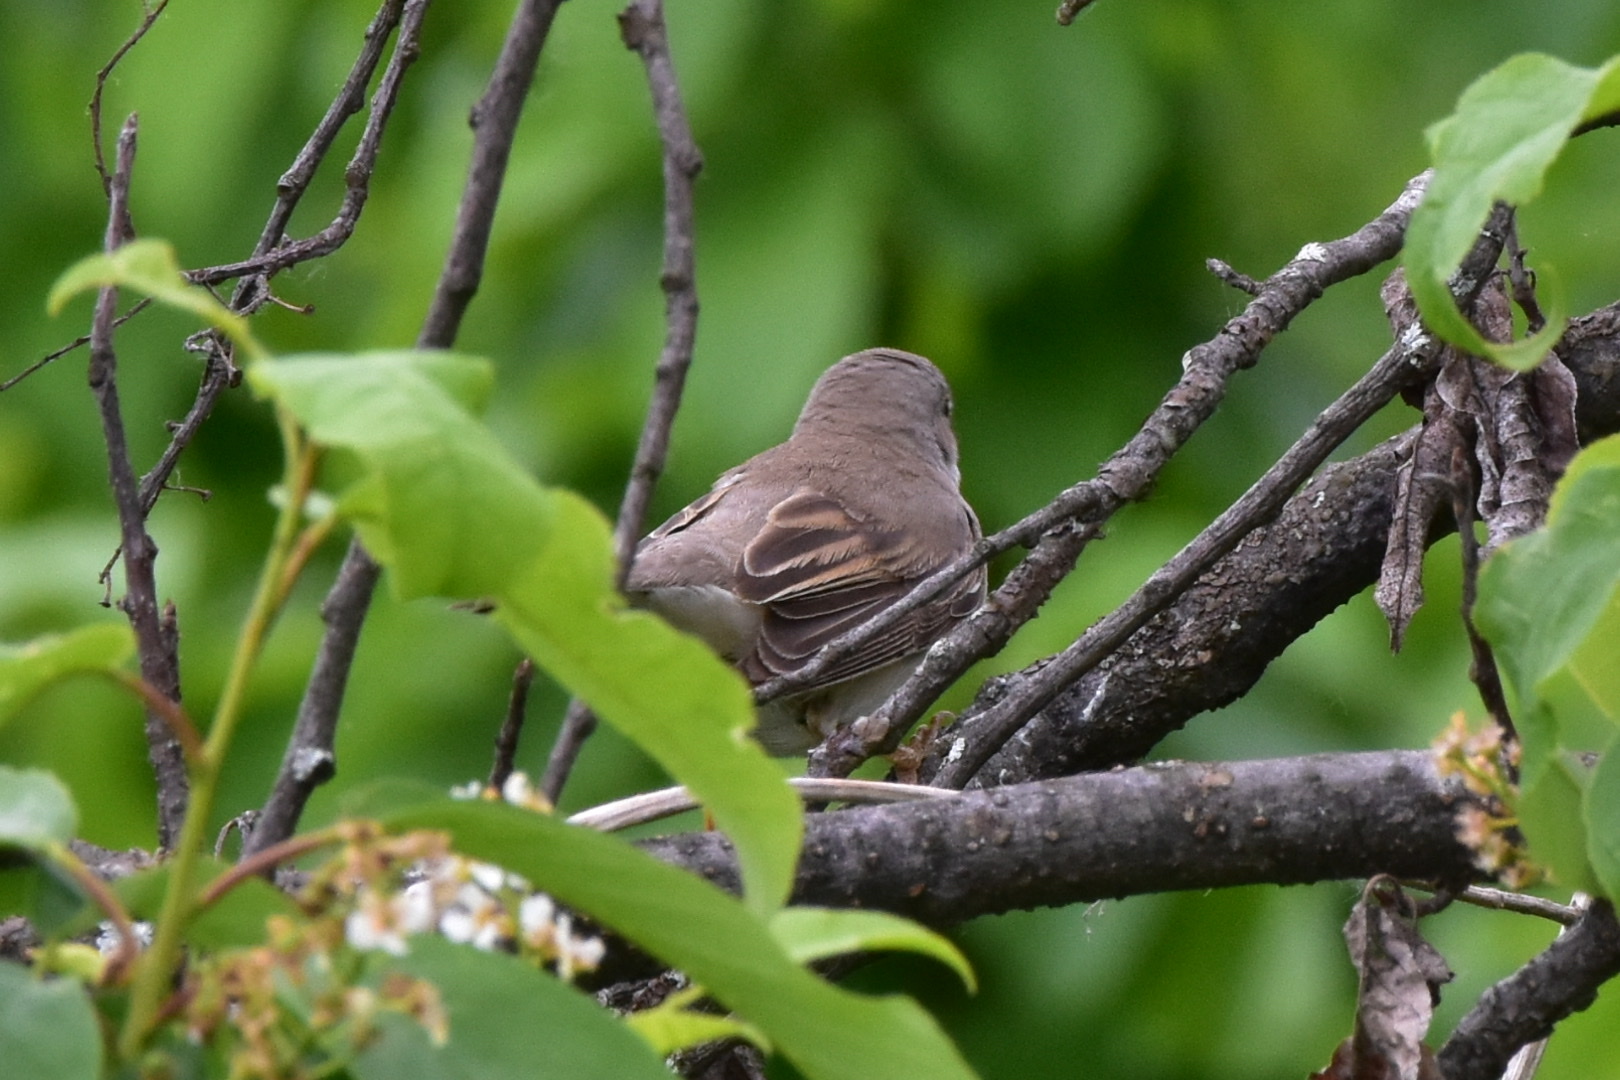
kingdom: Animalia
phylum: Chordata
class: Aves
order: Passeriformes
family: Sylviidae
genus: Sylvia
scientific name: Sylvia communis
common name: Common whitethroat
